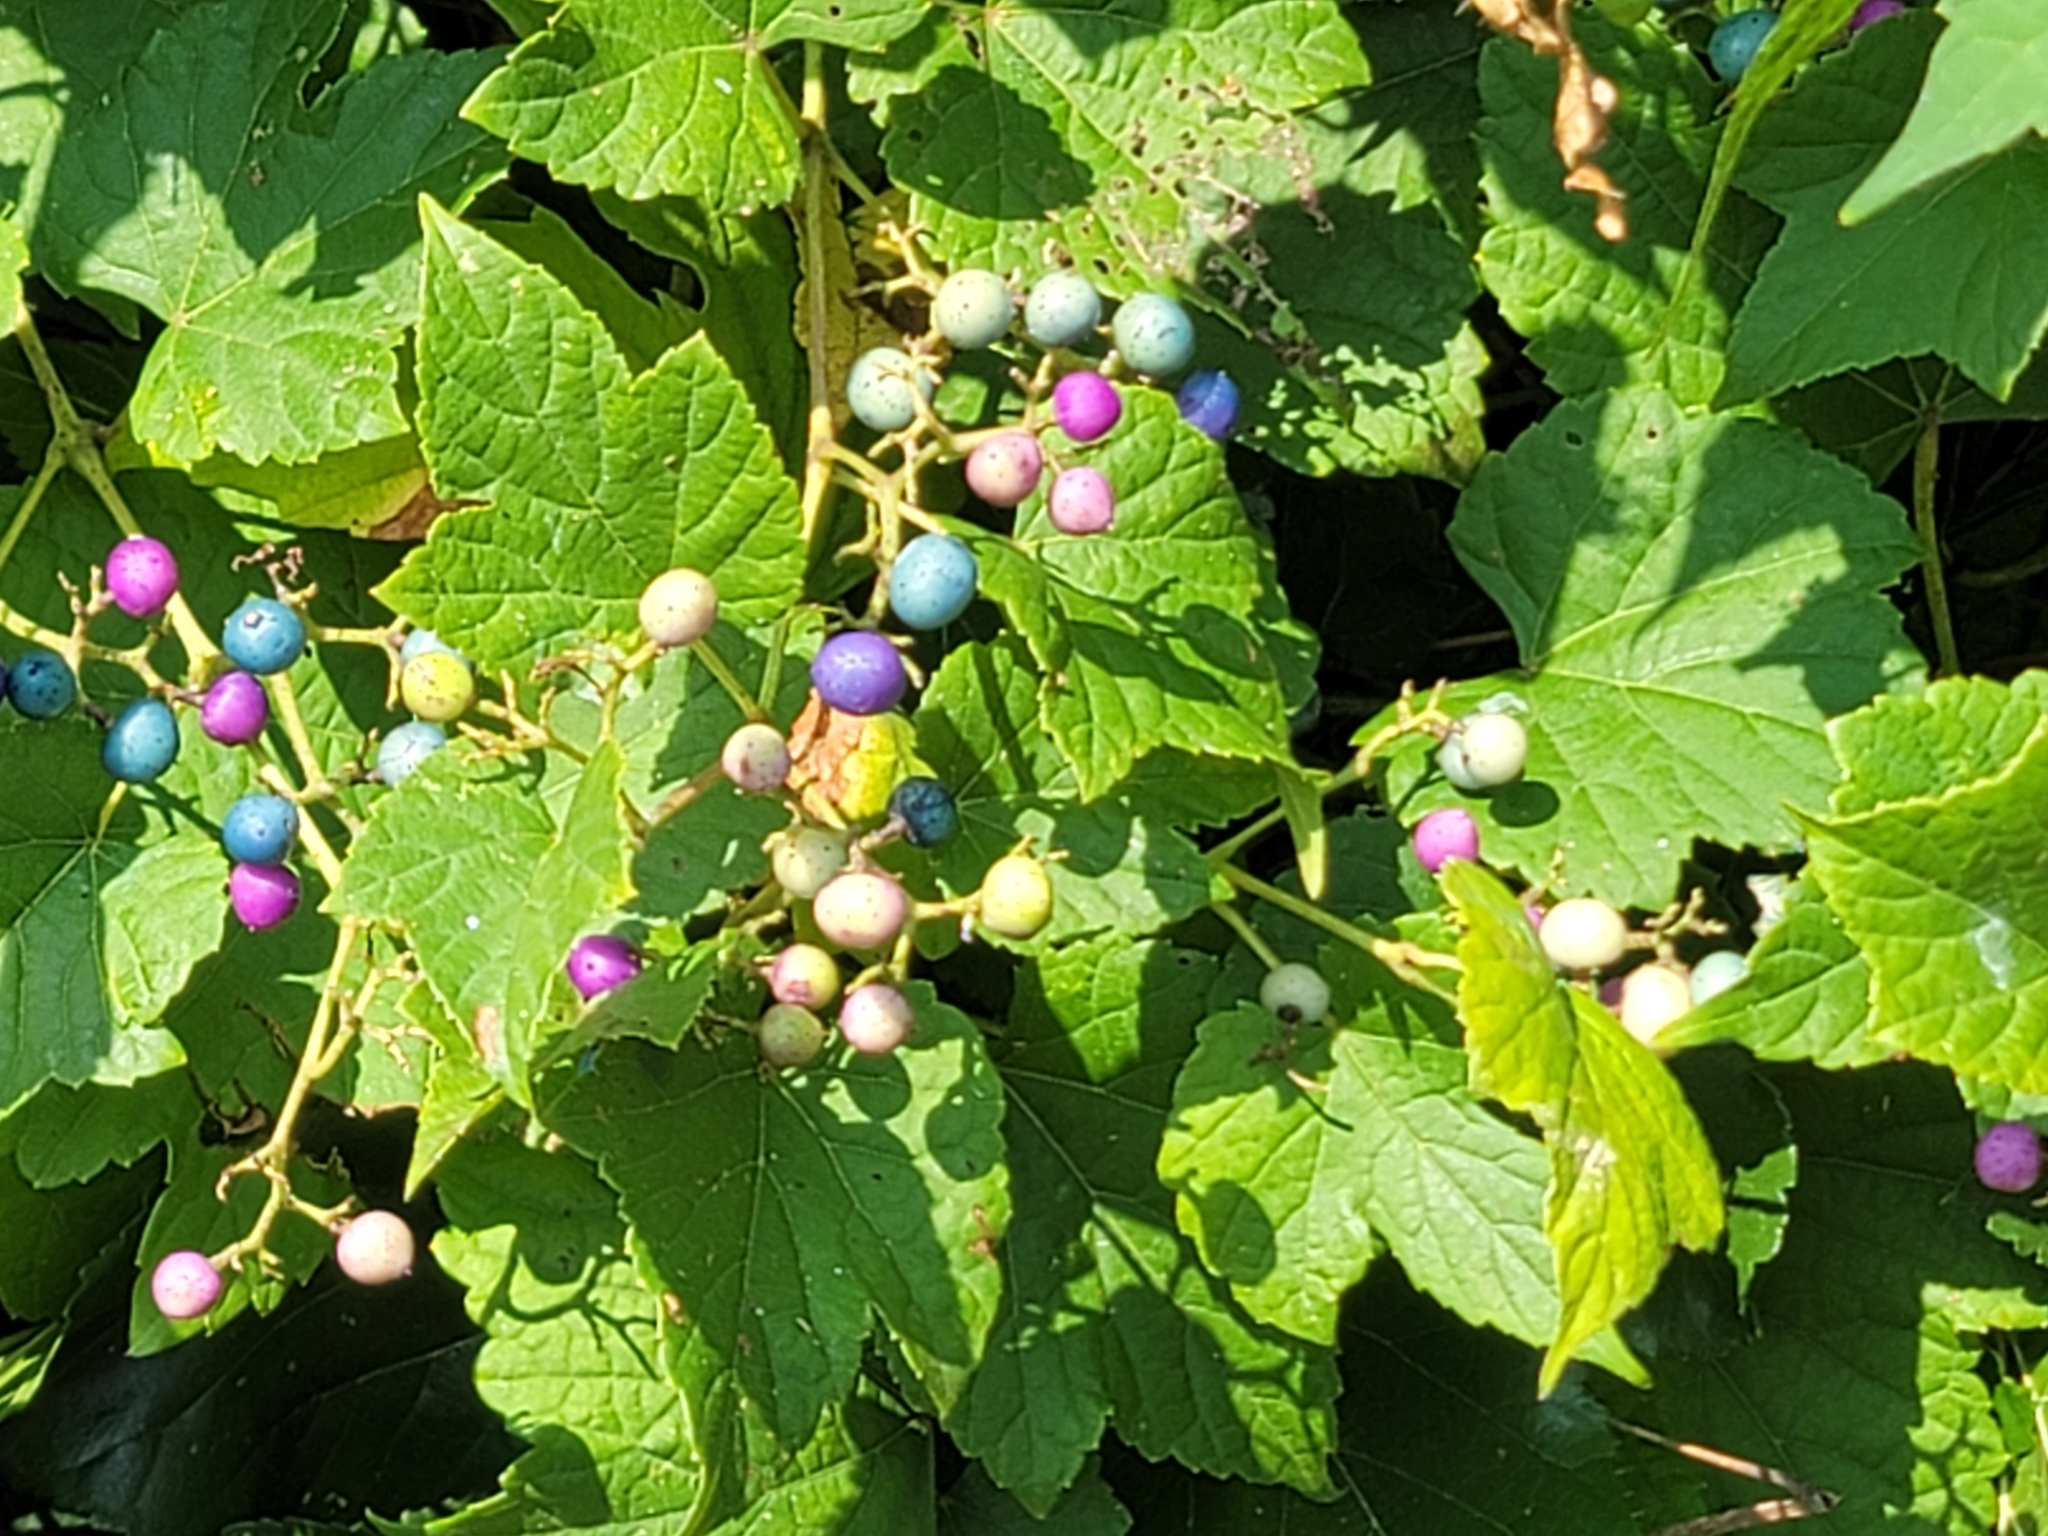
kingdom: Plantae
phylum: Tracheophyta
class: Magnoliopsida
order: Vitales
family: Vitaceae
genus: Ampelopsis
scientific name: Ampelopsis glandulosa
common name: Amur peppervine
